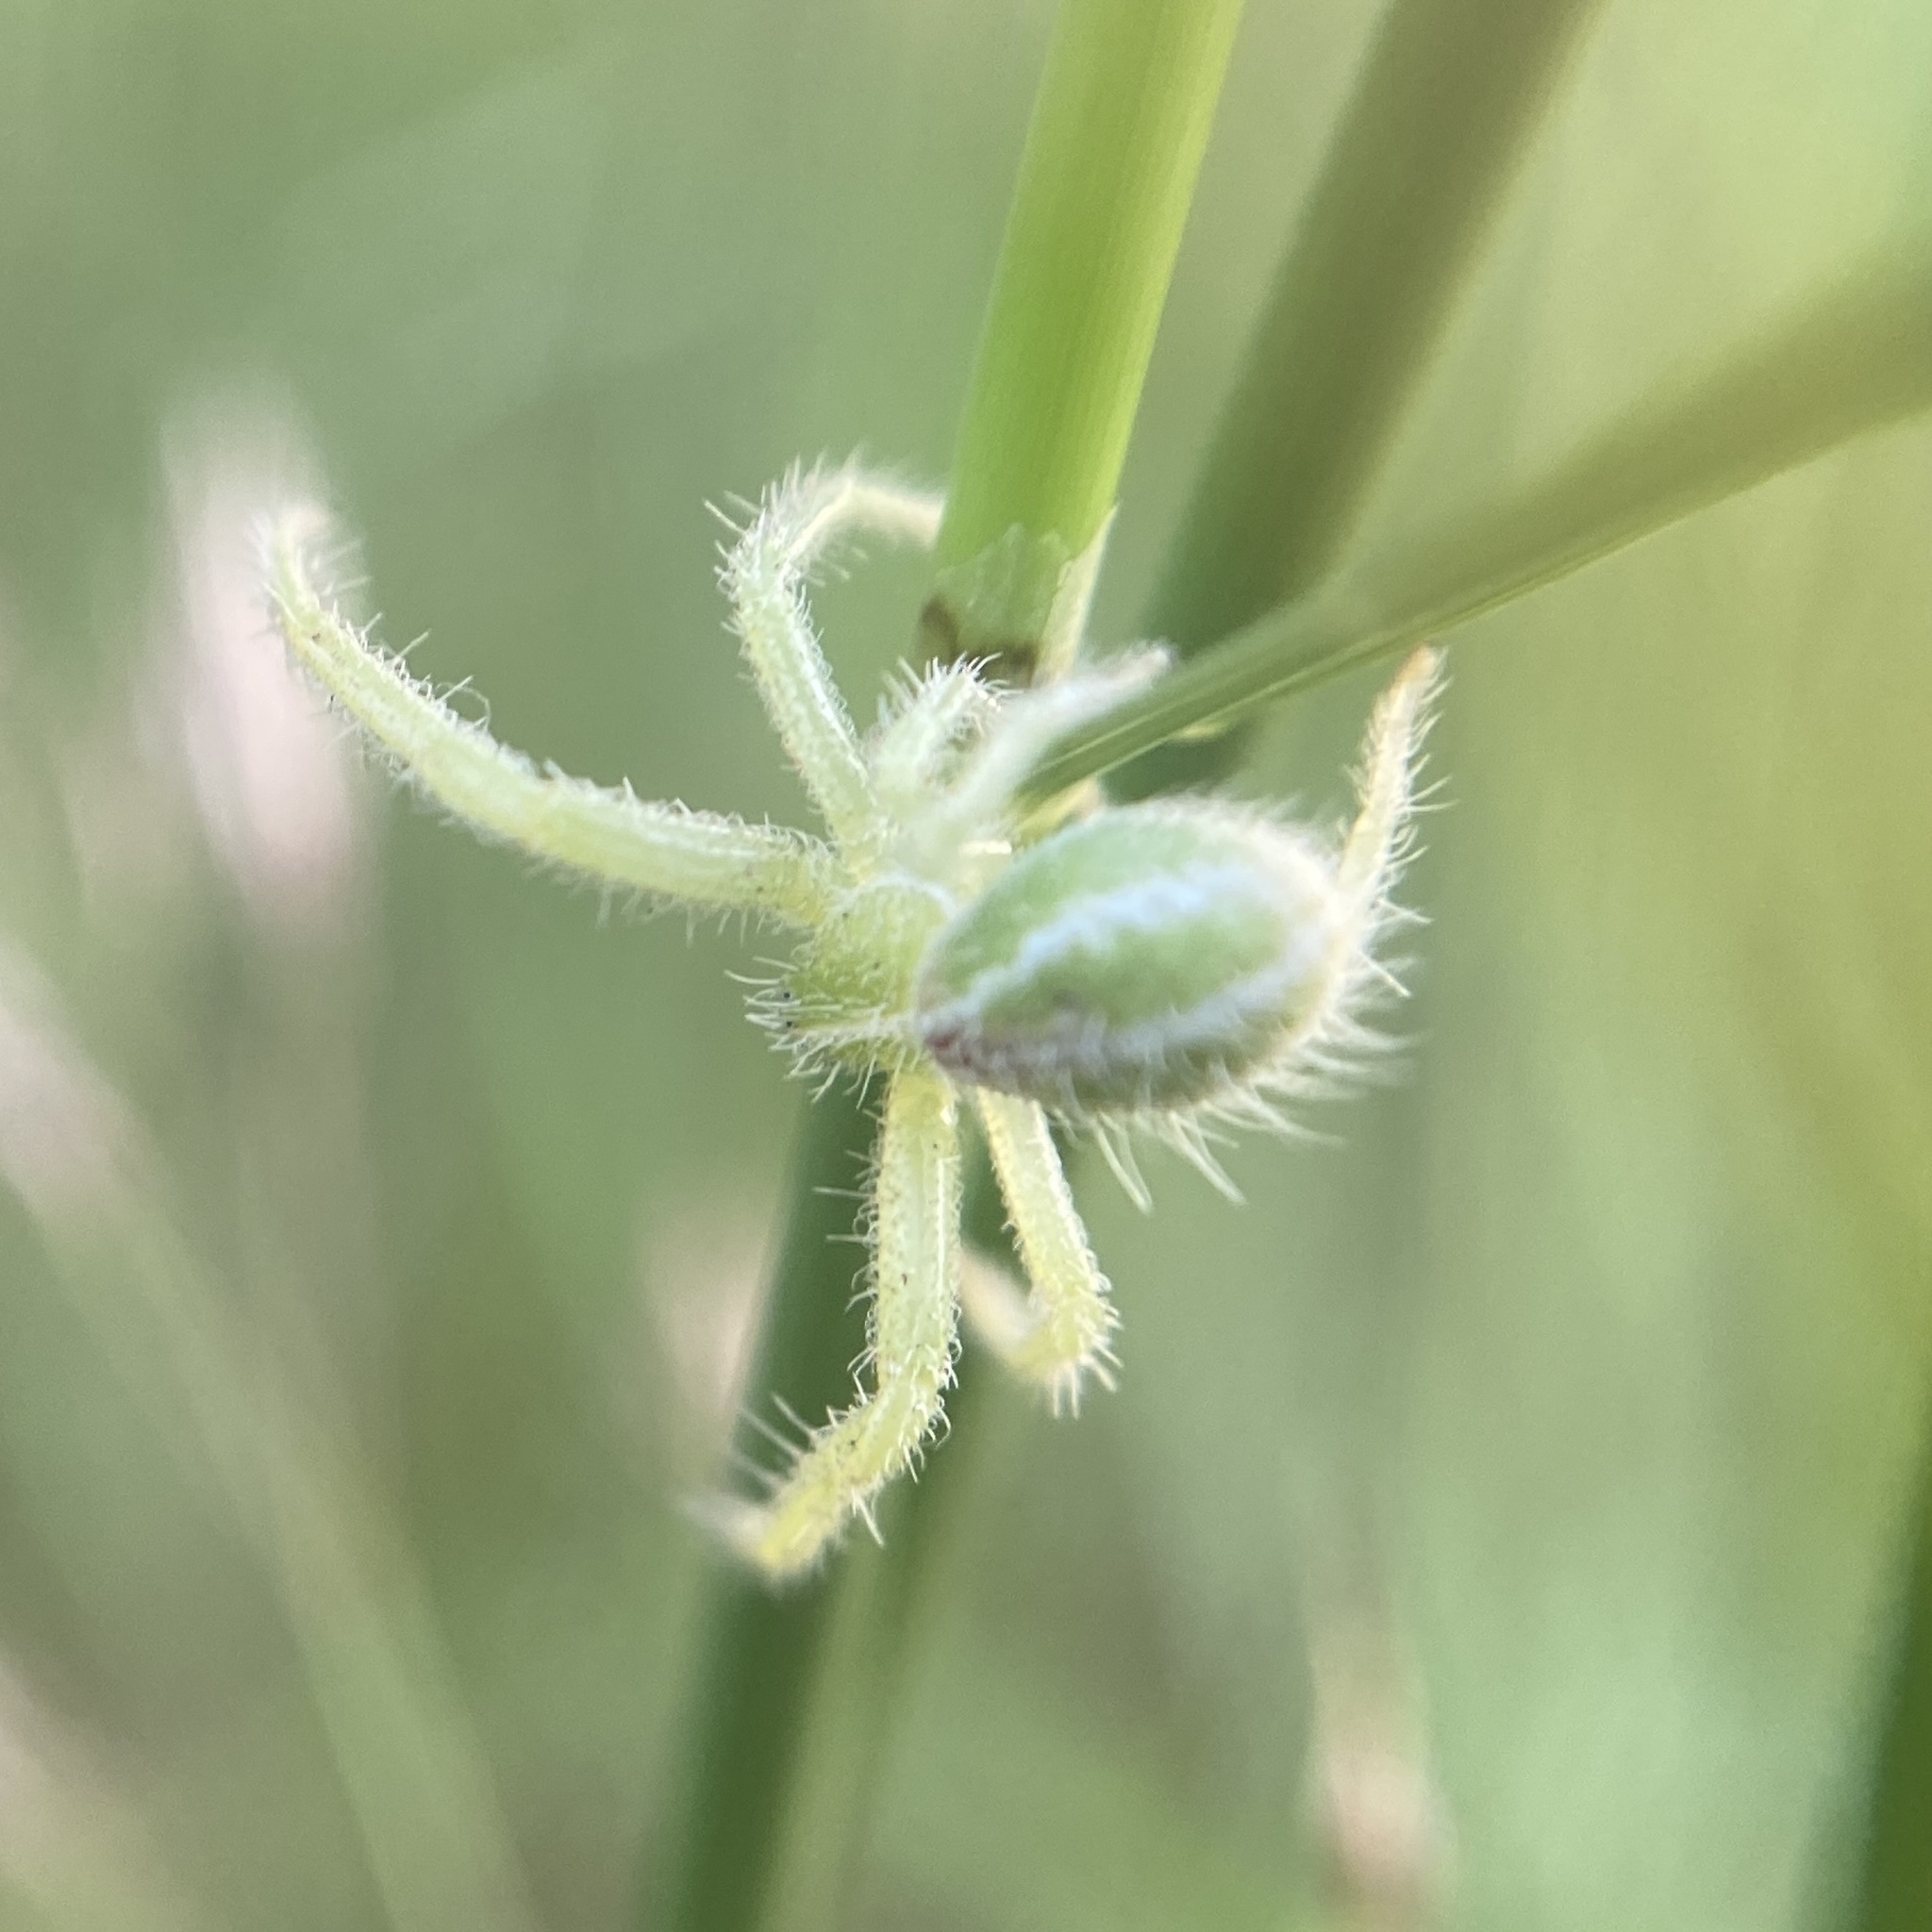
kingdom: Animalia
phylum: Arthropoda
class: Arachnida
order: Araneae
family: Thomisidae
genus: Heriaeus
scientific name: Heriaeus oblongus
